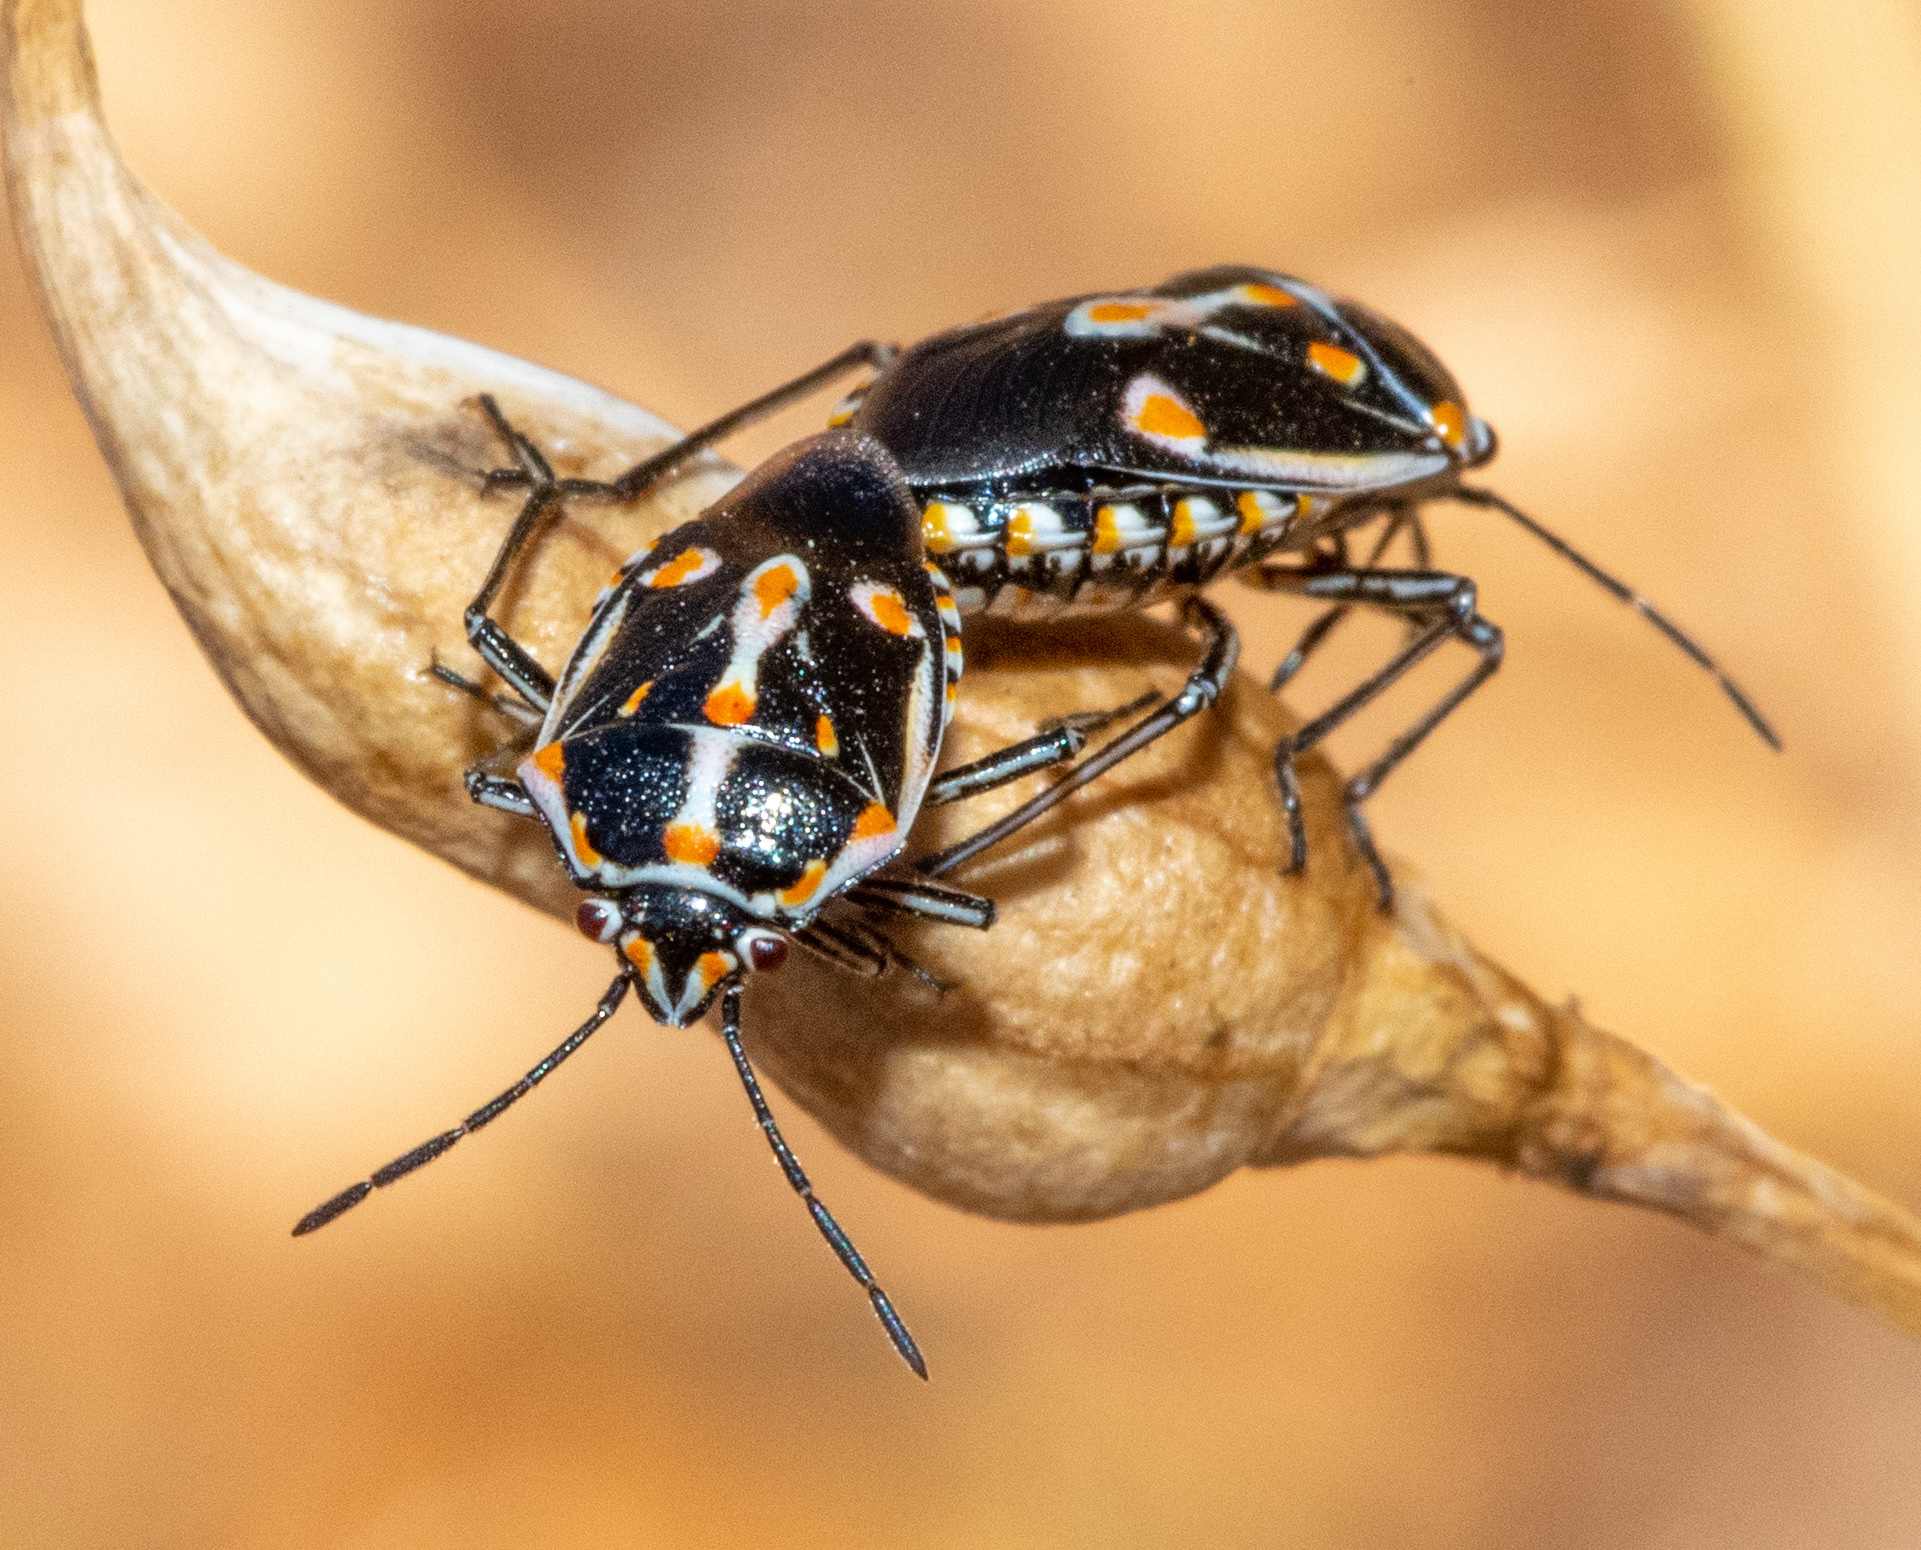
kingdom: Animalia
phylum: Arthropoda
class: Insecta
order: Hemiptera
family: Pentatomidae
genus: Bagrada
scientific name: Bagrada hilaris
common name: Bagrada bug
